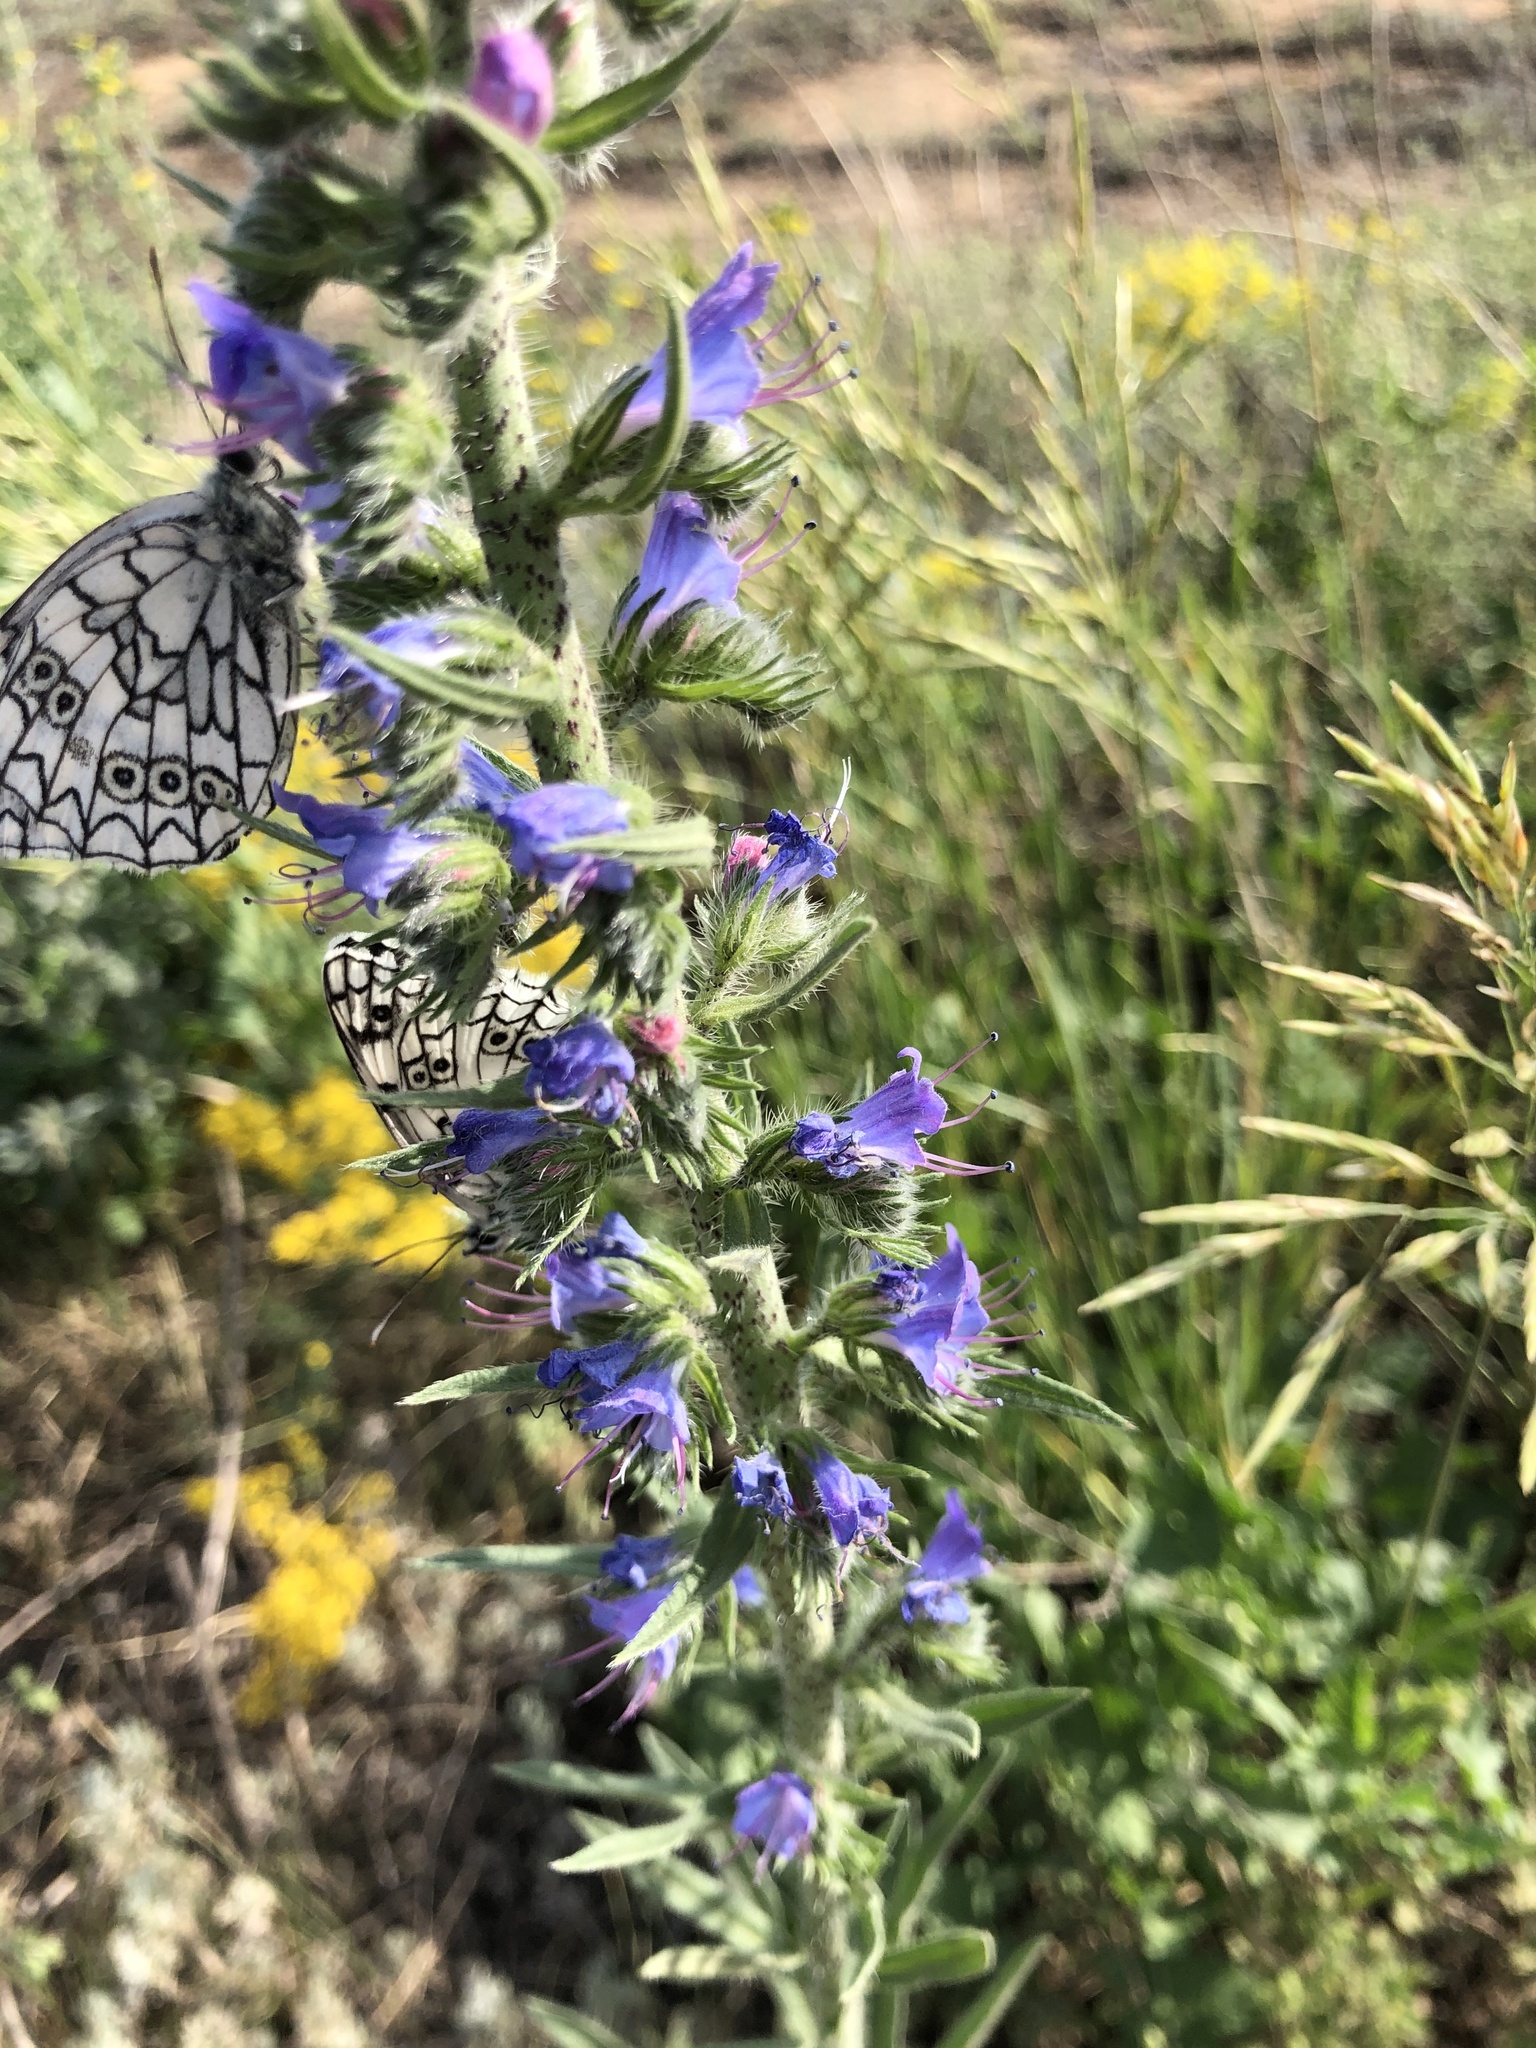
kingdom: Plantae
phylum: Tracheophyta
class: Magnoliopsida
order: Boraginales
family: Boraginaceae
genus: Echium
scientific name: Echium vulgare
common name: Common viper's bugloss
